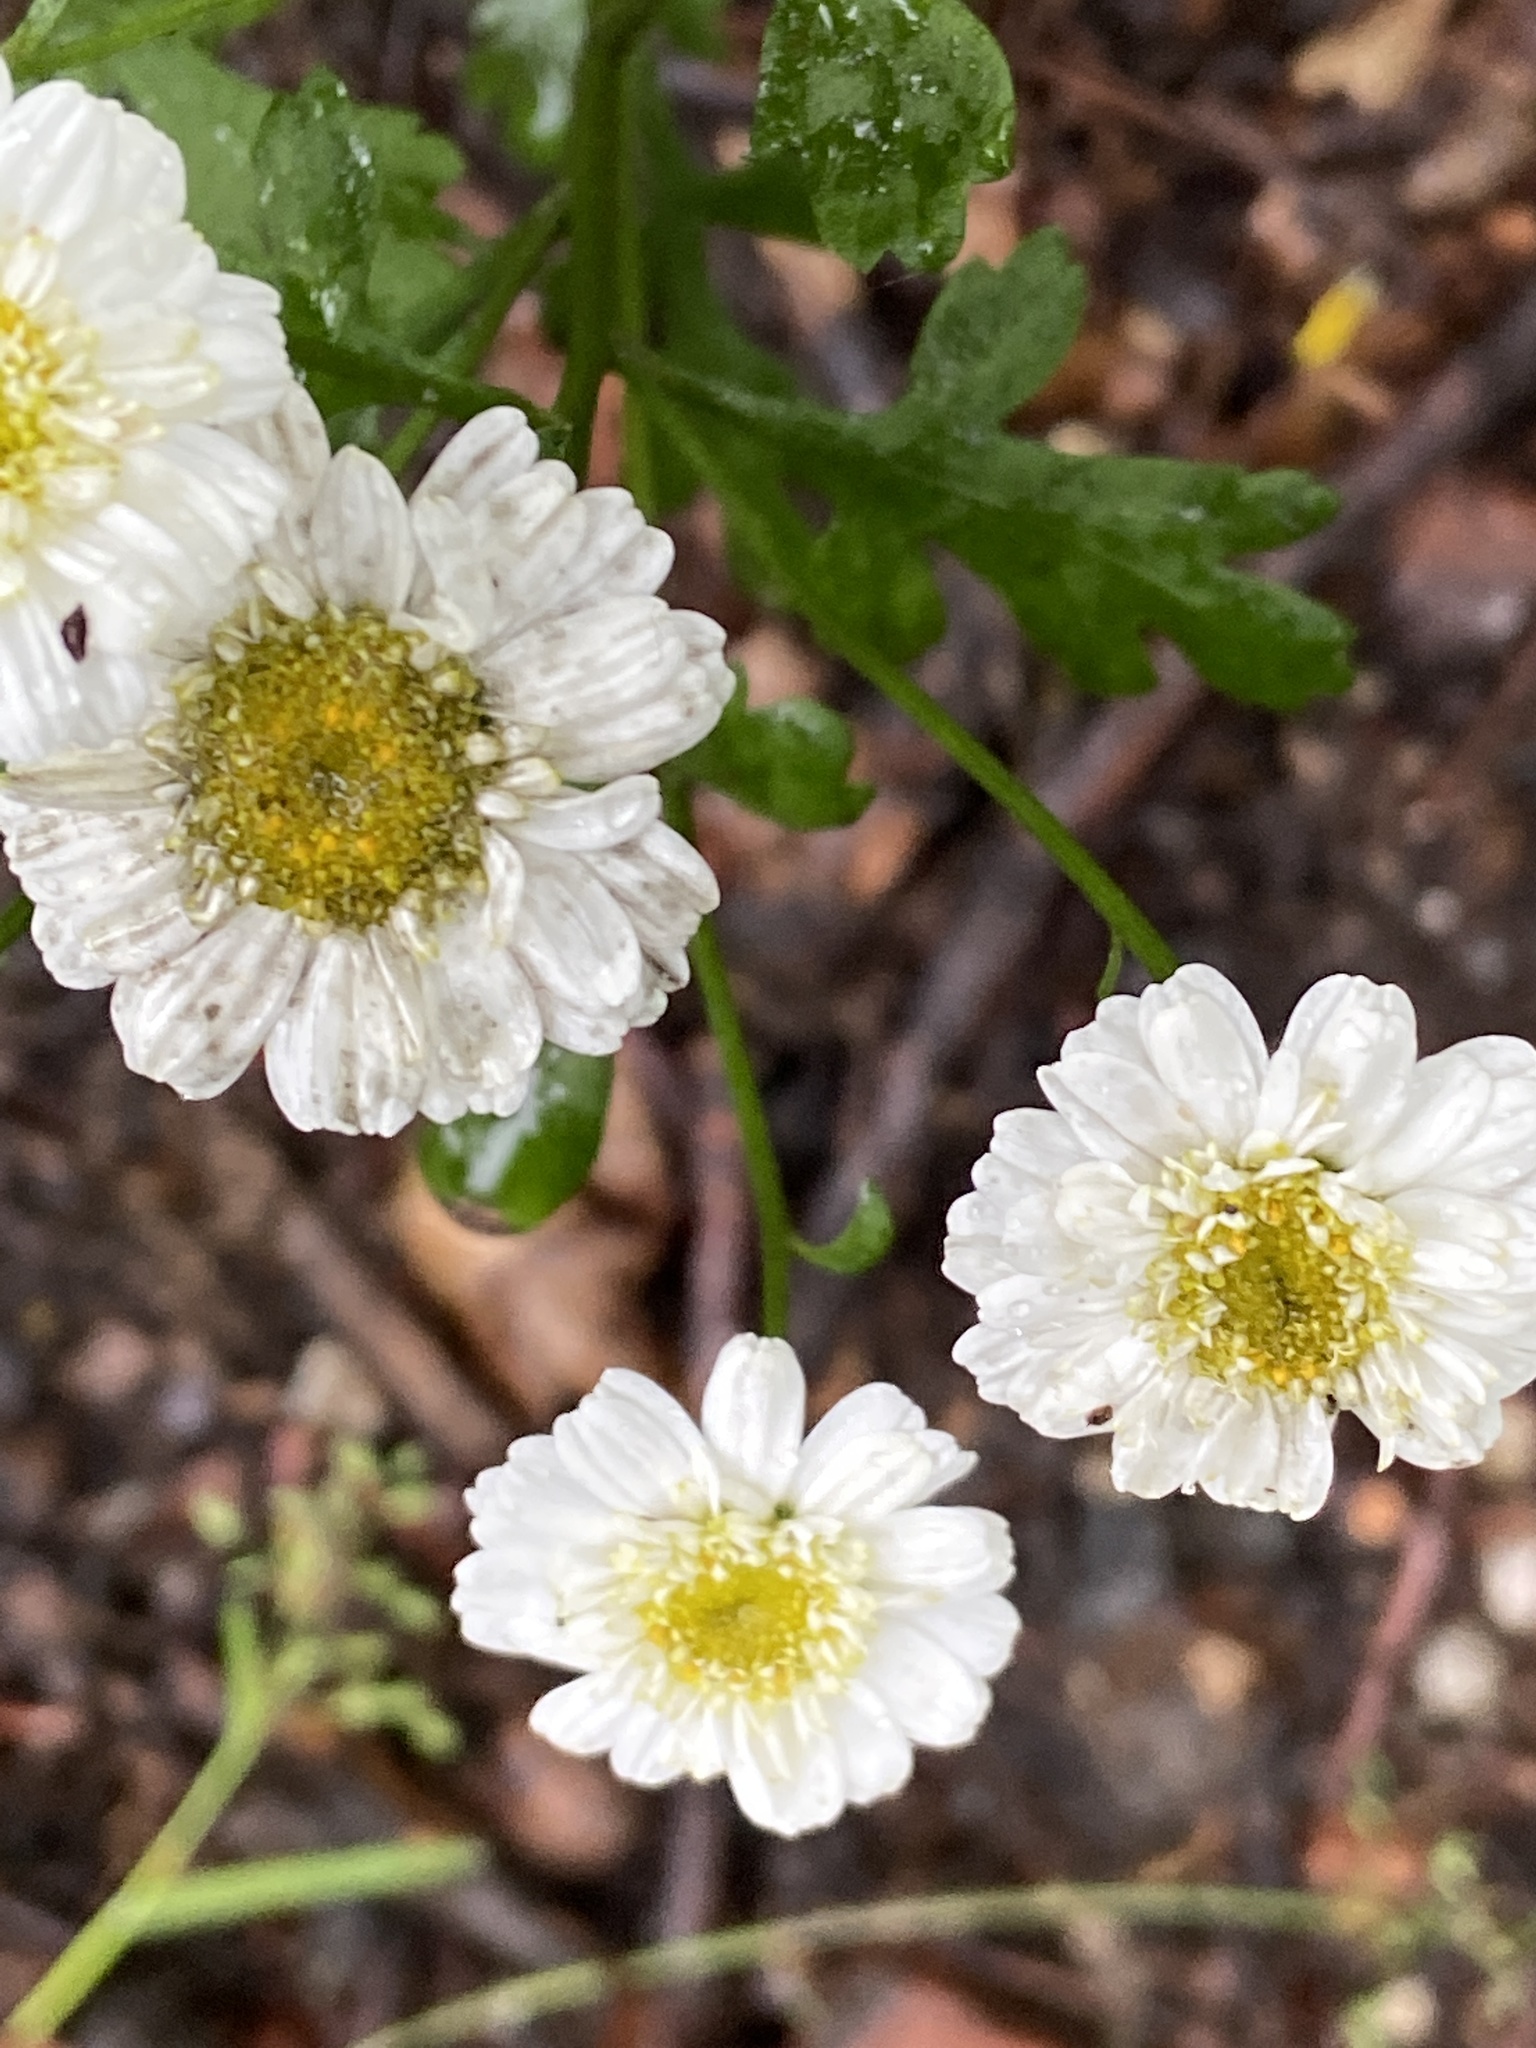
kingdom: Plantae
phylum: Tracheophyta
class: Magnoliopsida
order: Asterales
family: Asteraceae
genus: Tanacetum
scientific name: Tanacetum parthenium
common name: Feverfew
